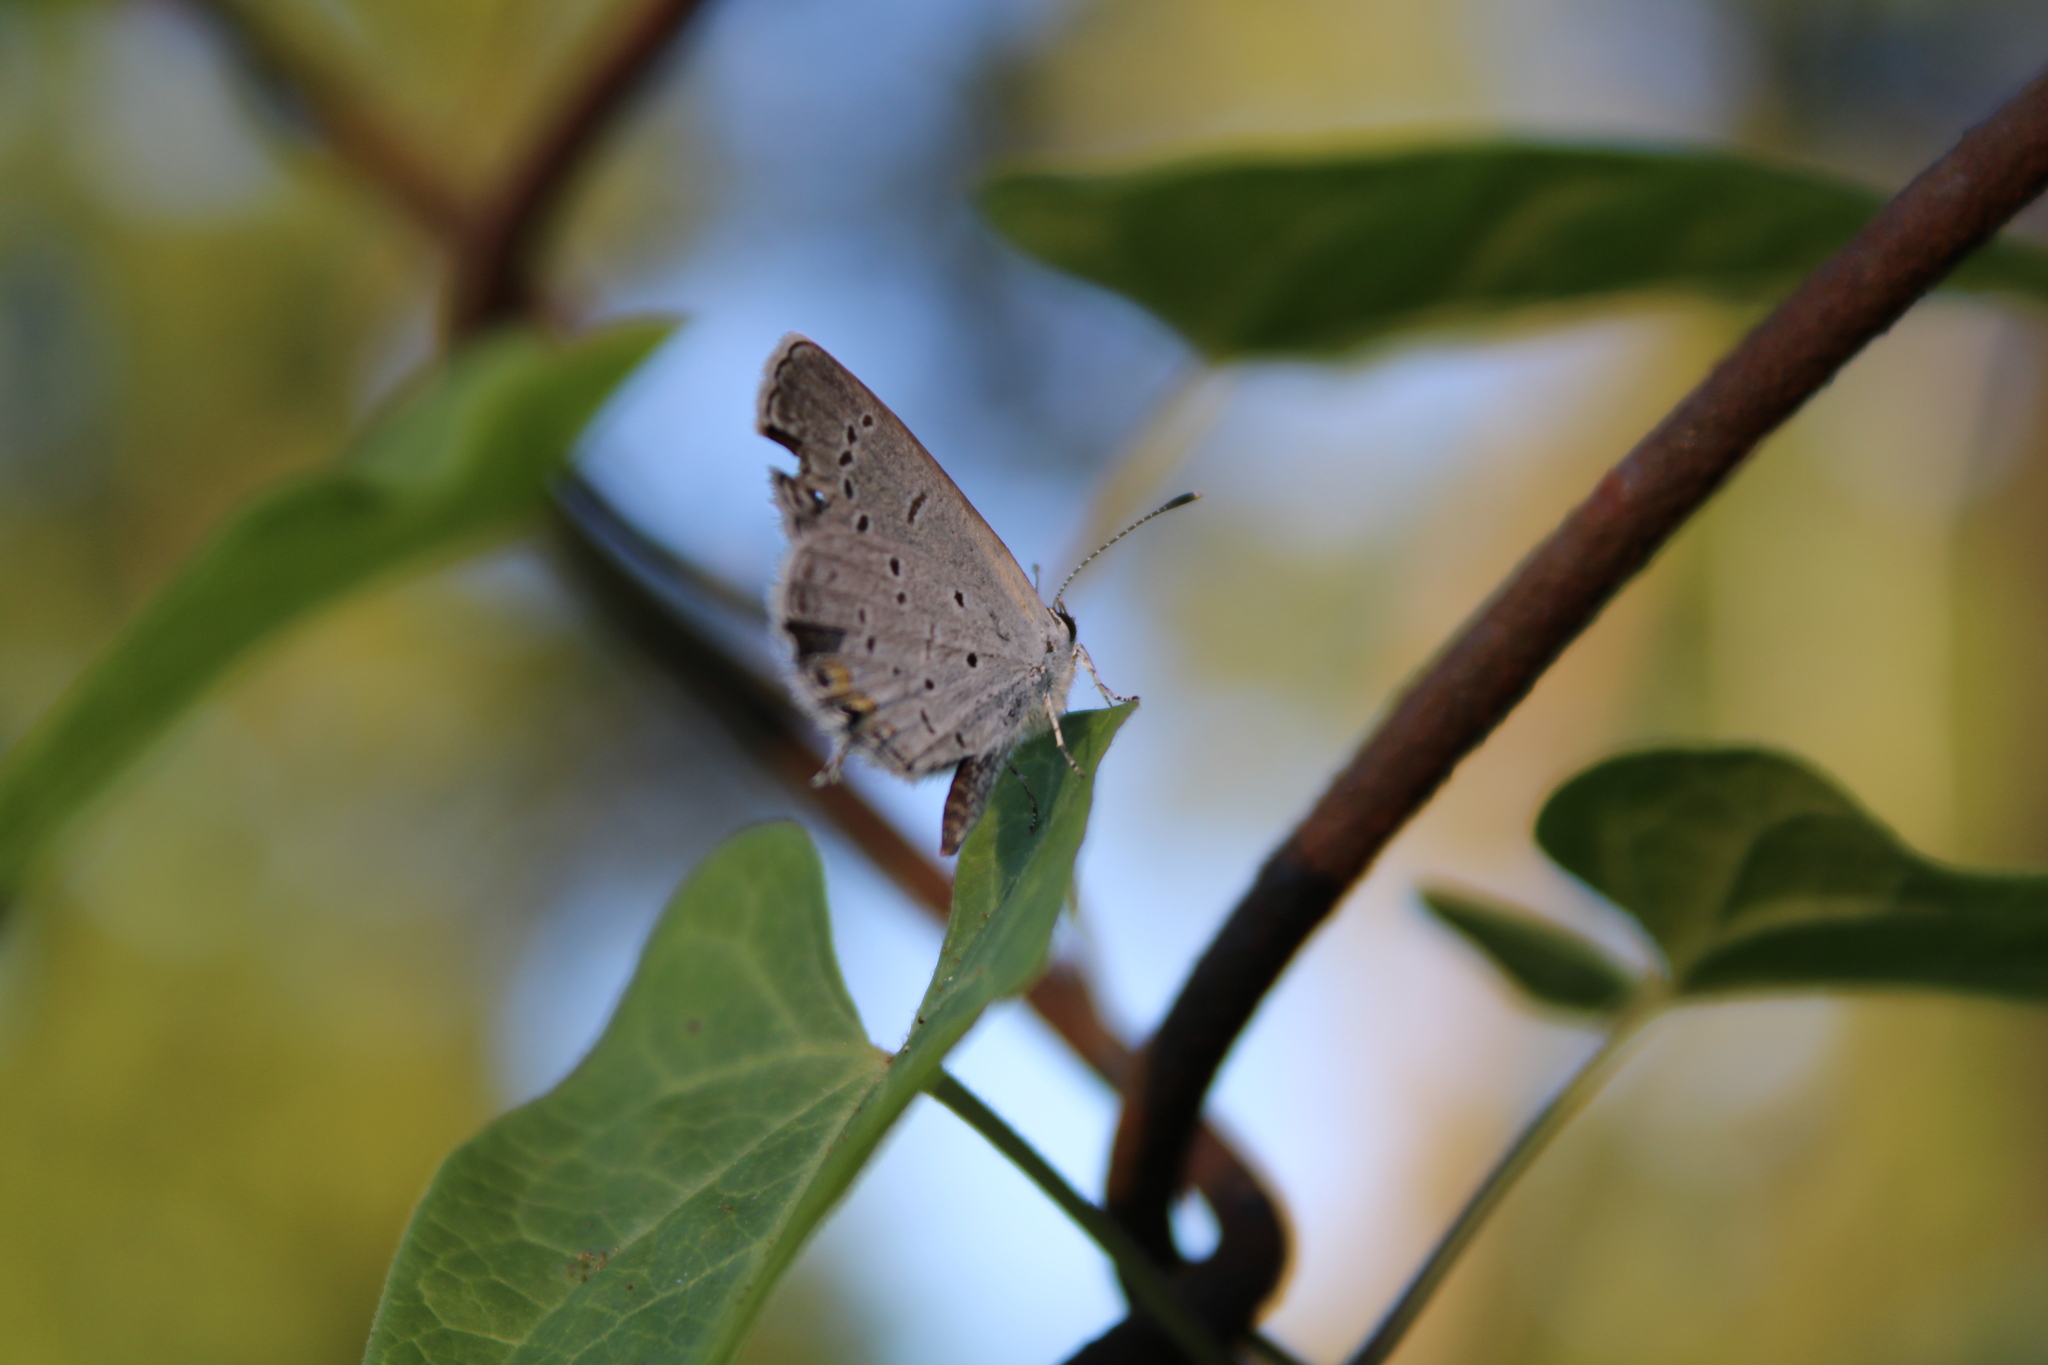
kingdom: Animalia
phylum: Arthropoda
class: Insecta
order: Lepidoptera
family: Lycaenidae
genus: Elkalyce
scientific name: Elkalyce comyntas
